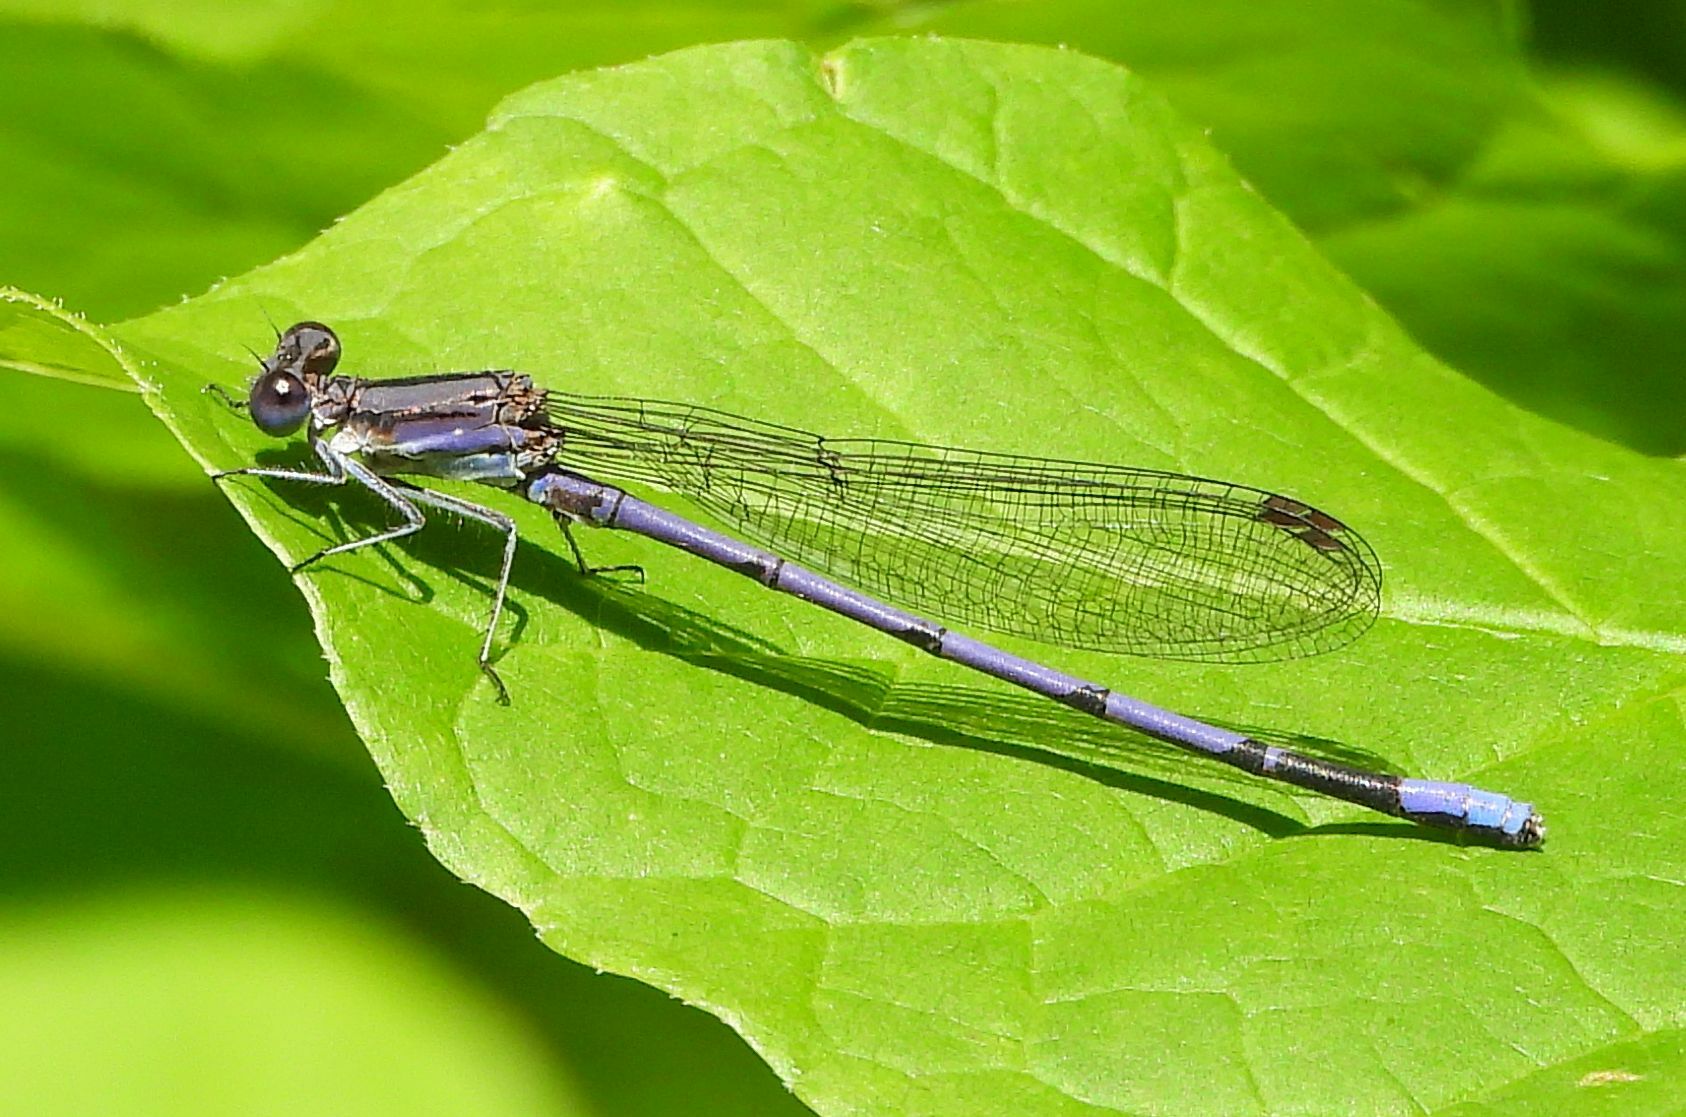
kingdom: Animalia
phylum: Arthropoda
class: Insecta
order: Odonata
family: Coenagrionidae
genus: Argia
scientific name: Argia fumipennis
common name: Variable dancer
